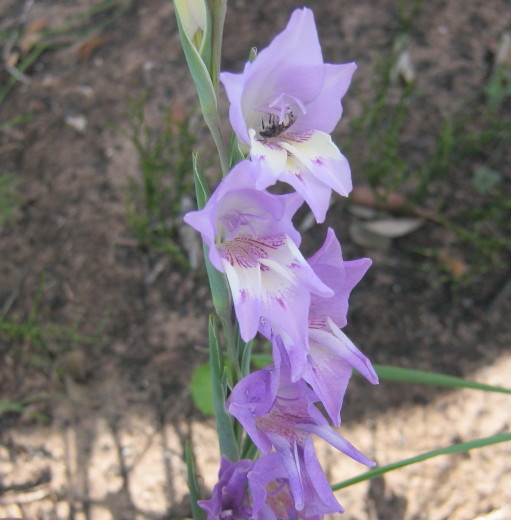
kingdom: Plantae
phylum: Tracheophyta
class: Liliopsida
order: Asparagales
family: Iridaceae
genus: Gladiolus
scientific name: Gladiolus rogersii
